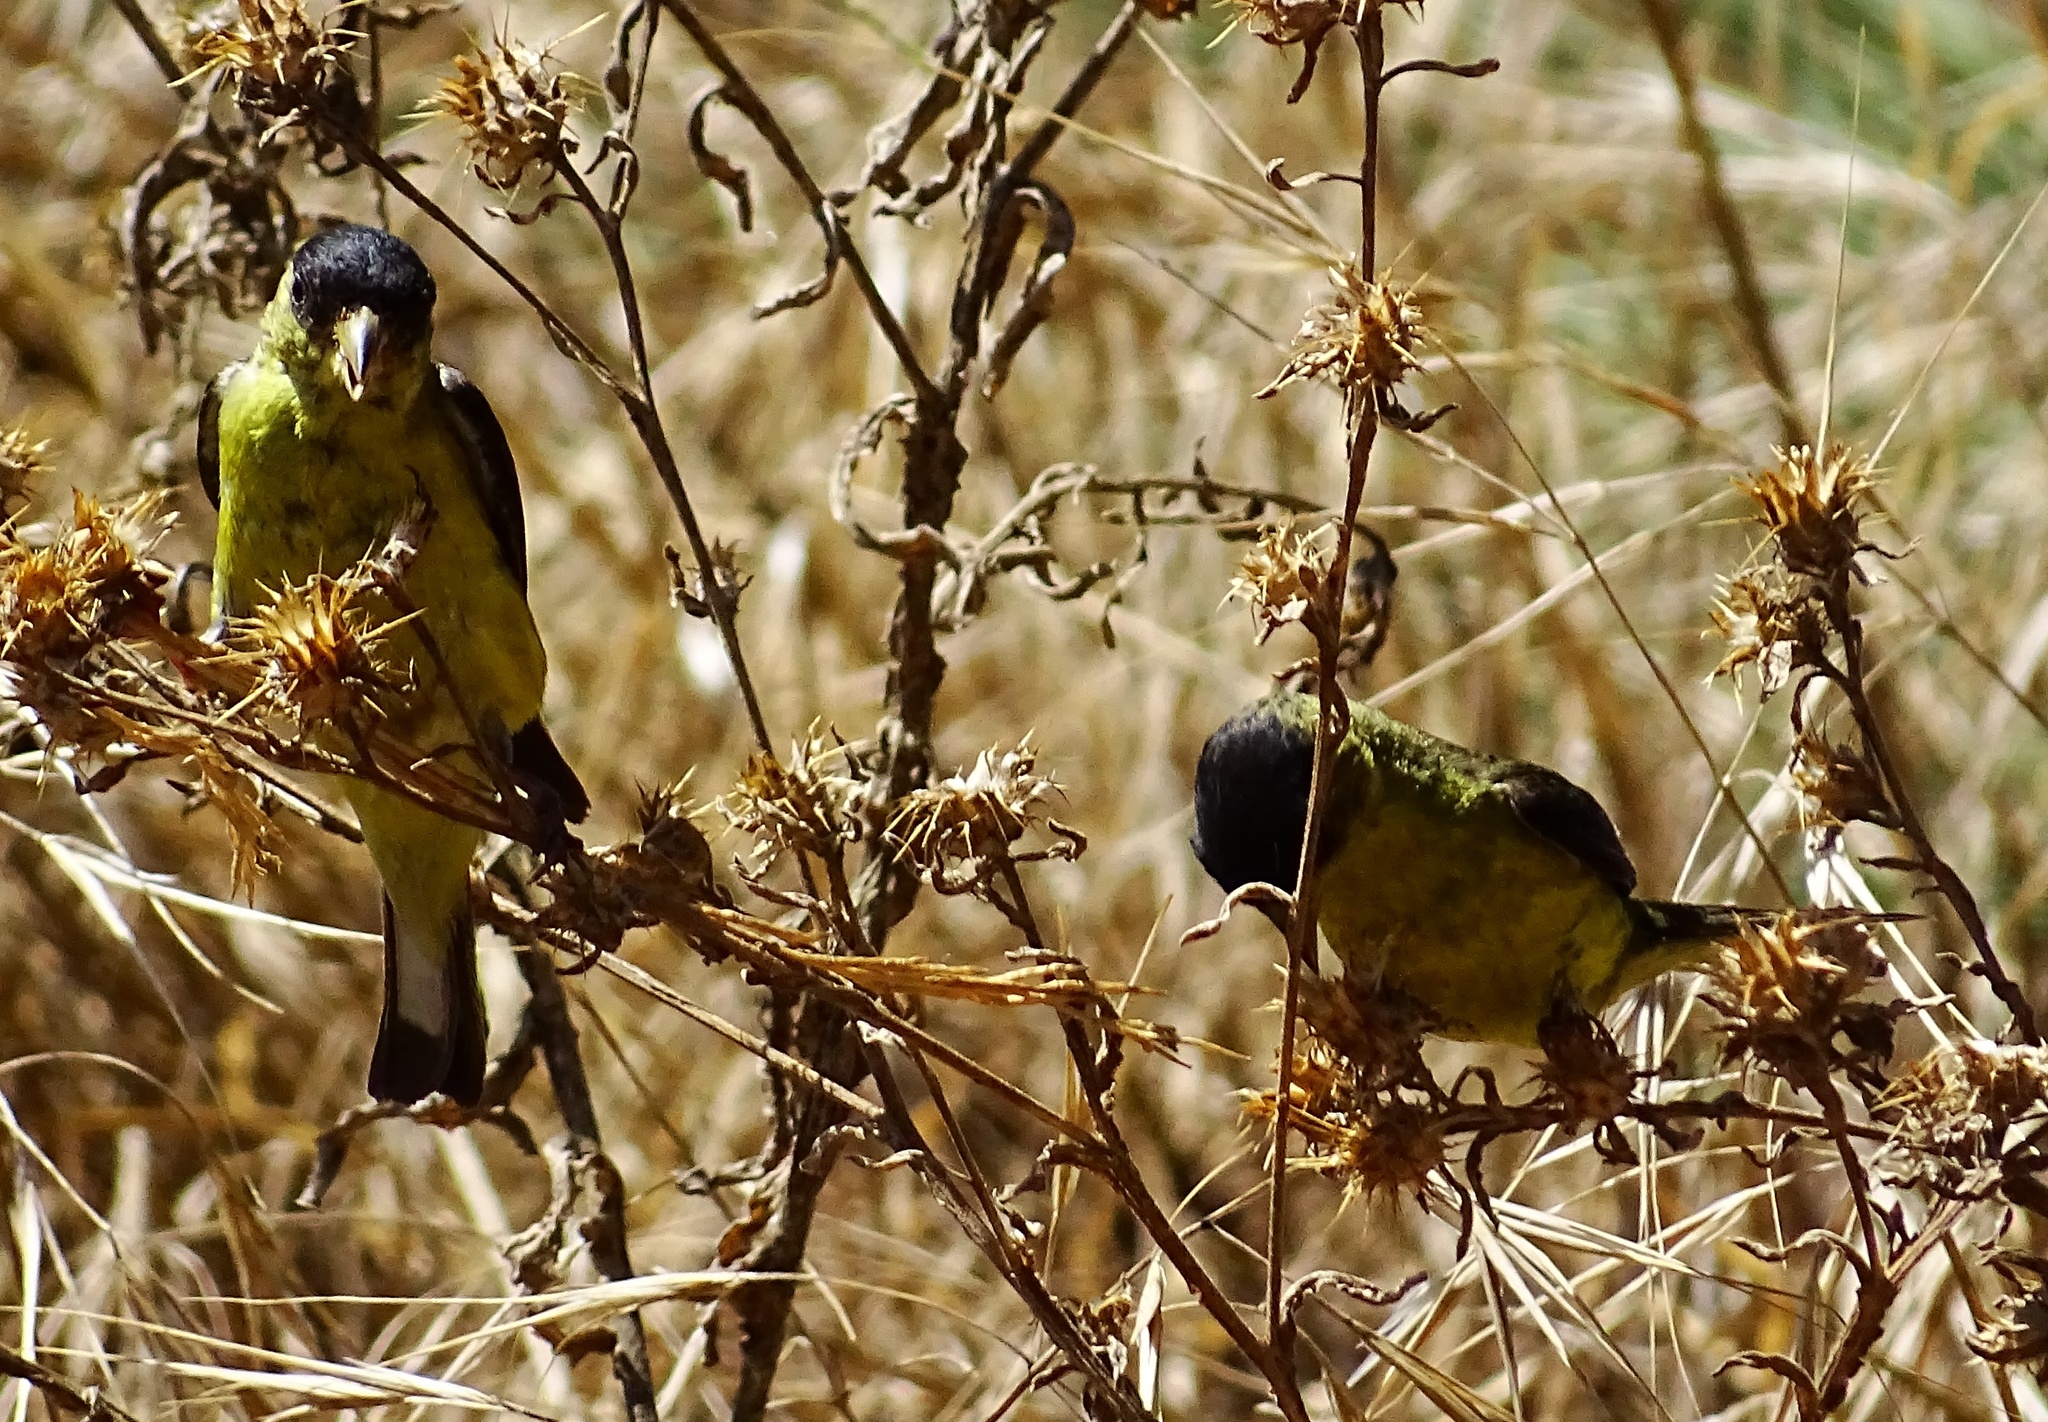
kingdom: Animalia
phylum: Chordata
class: Aves
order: Passeriformes
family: Fringillidae
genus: Spinus
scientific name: Spinus psaltria
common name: Lesser goldfinch
